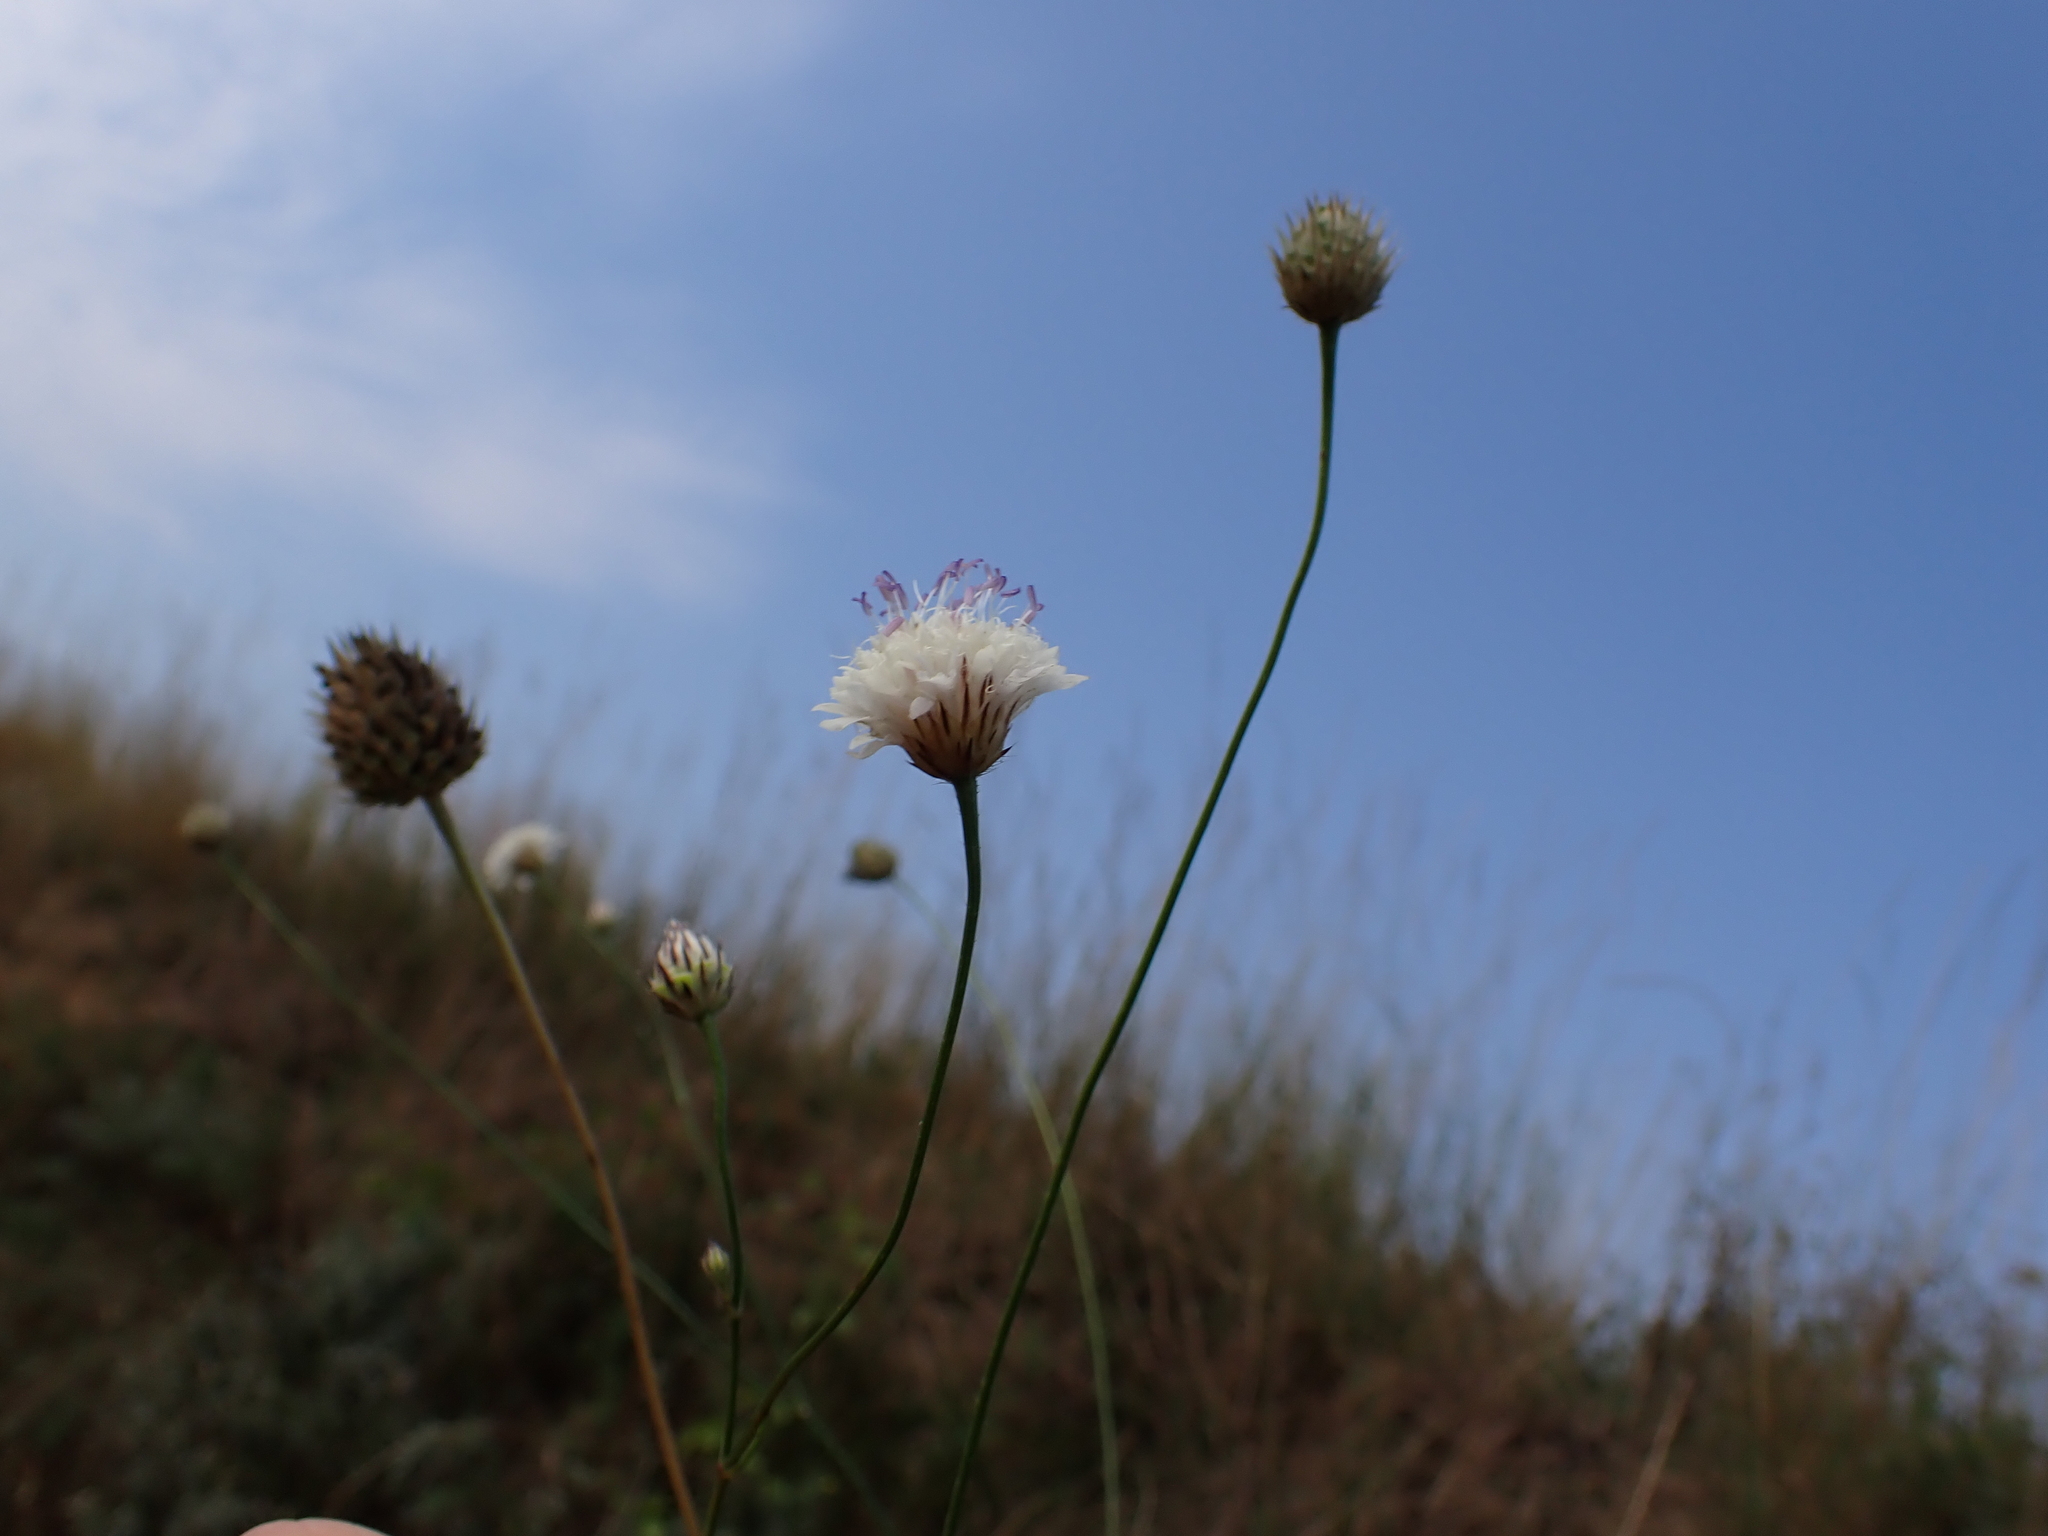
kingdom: Plantae
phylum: Tracheophyta
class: Magnoliopsida
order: Dipsacales
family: Caprifoliaceae
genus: Cephalaria
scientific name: Cephalaria transsylvanica
